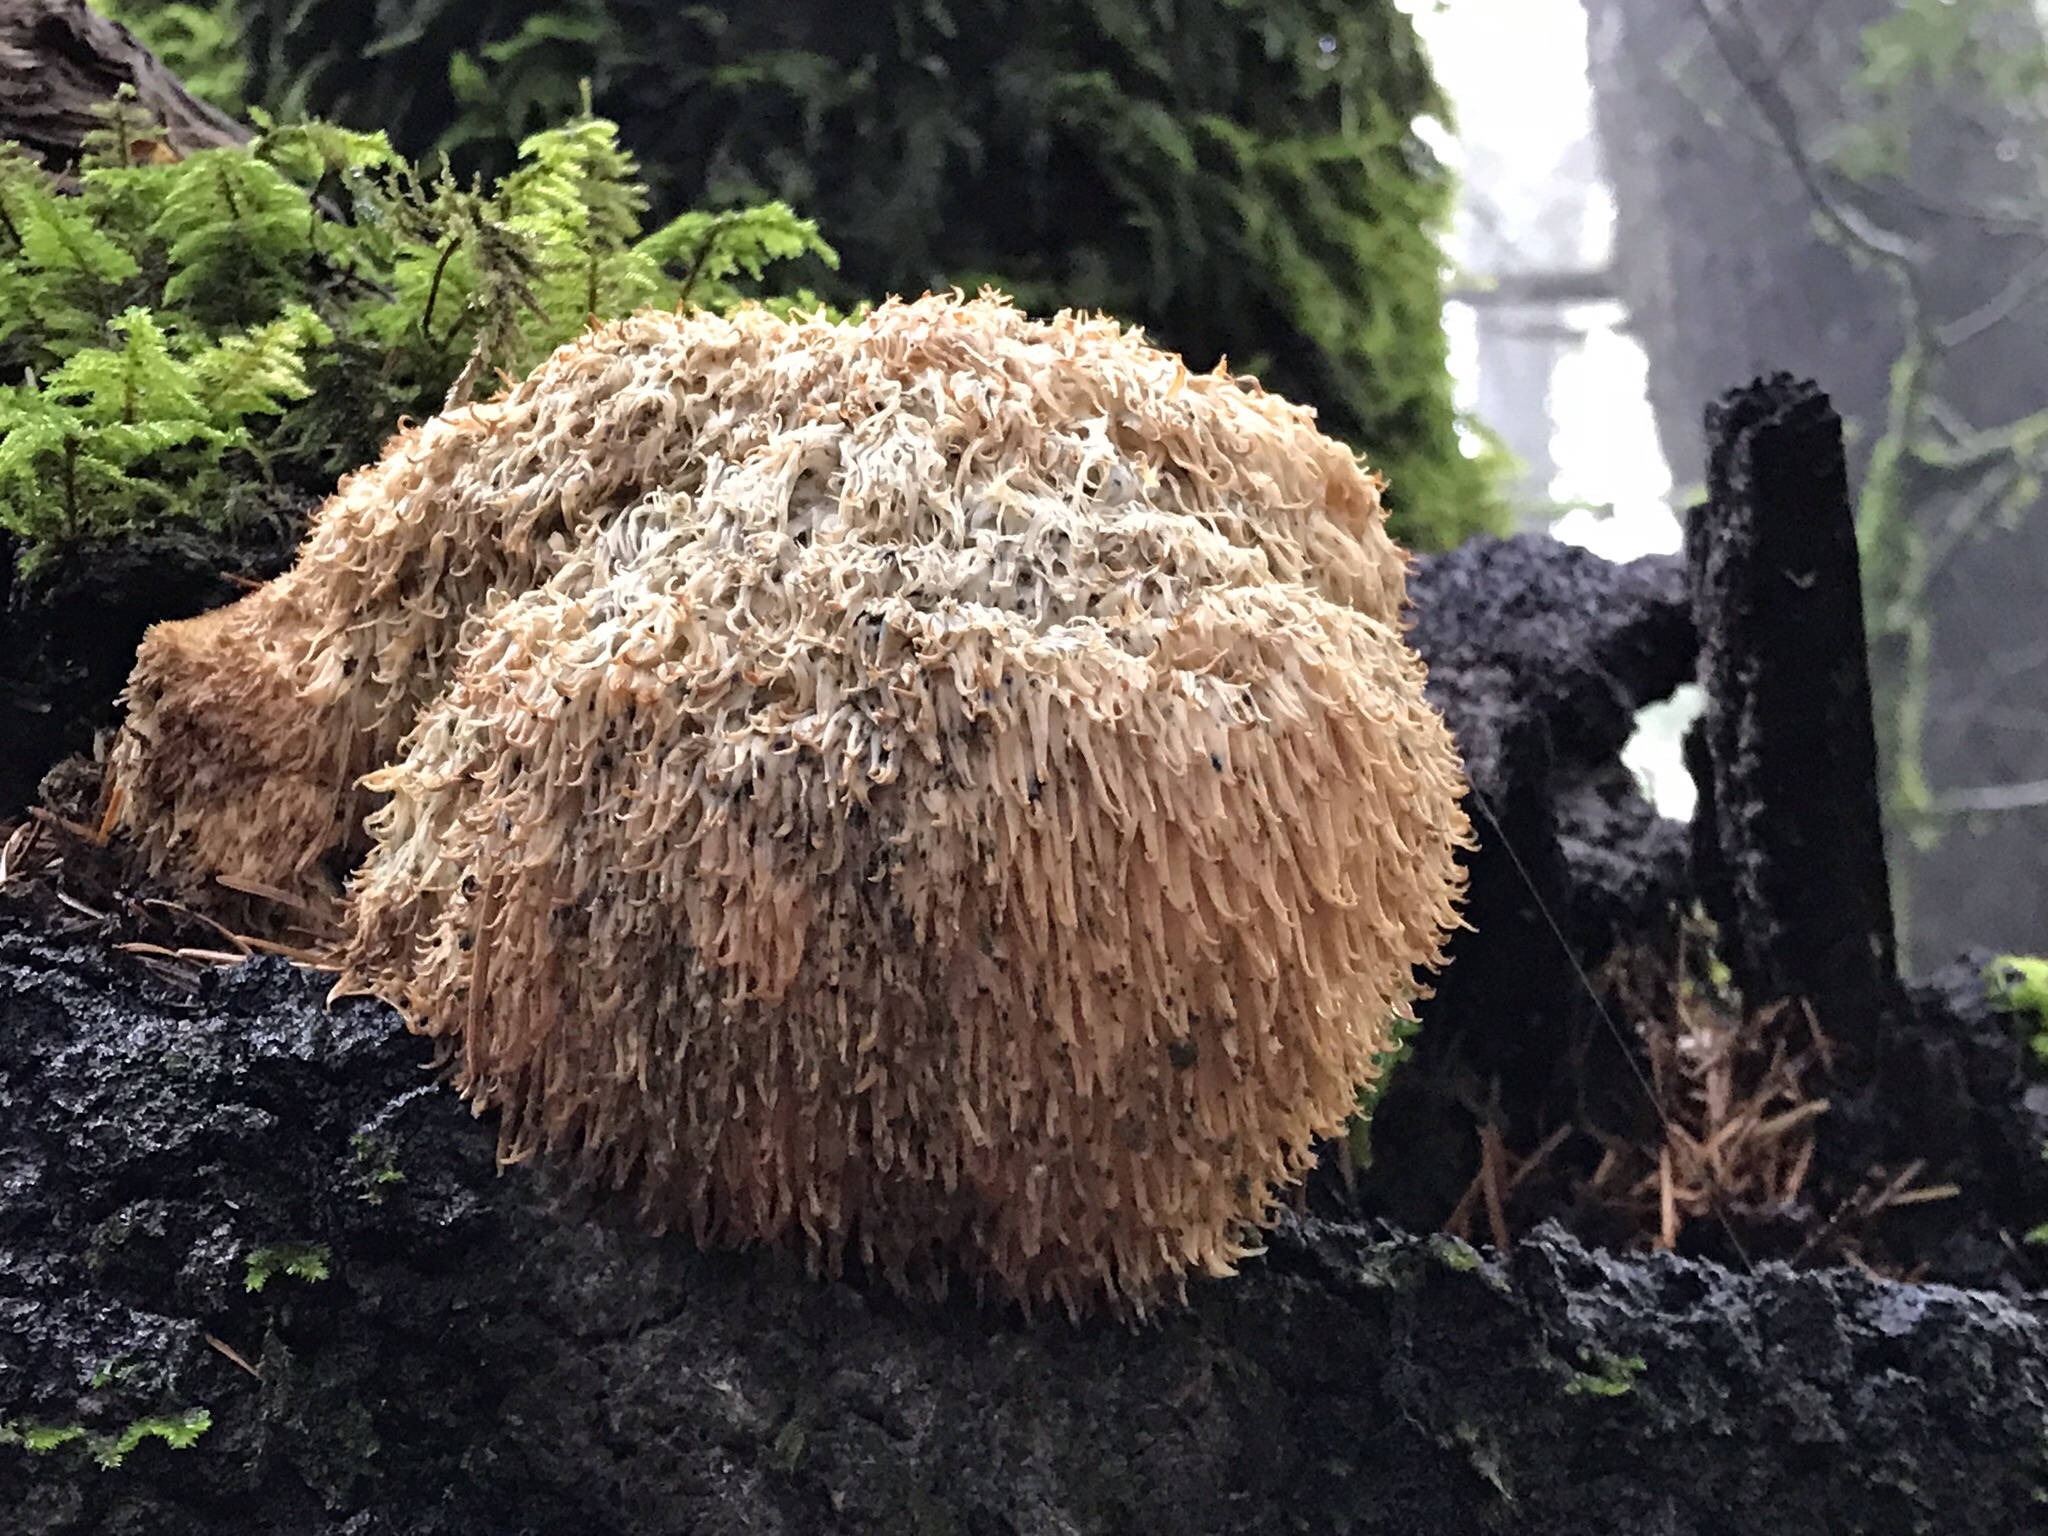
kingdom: Fungi
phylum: Basidiomycota
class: Agaricomycetes
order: Russulales
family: Hericiaceae
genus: Hericium
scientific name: Hericium erinaceus
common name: Bearded tooth
